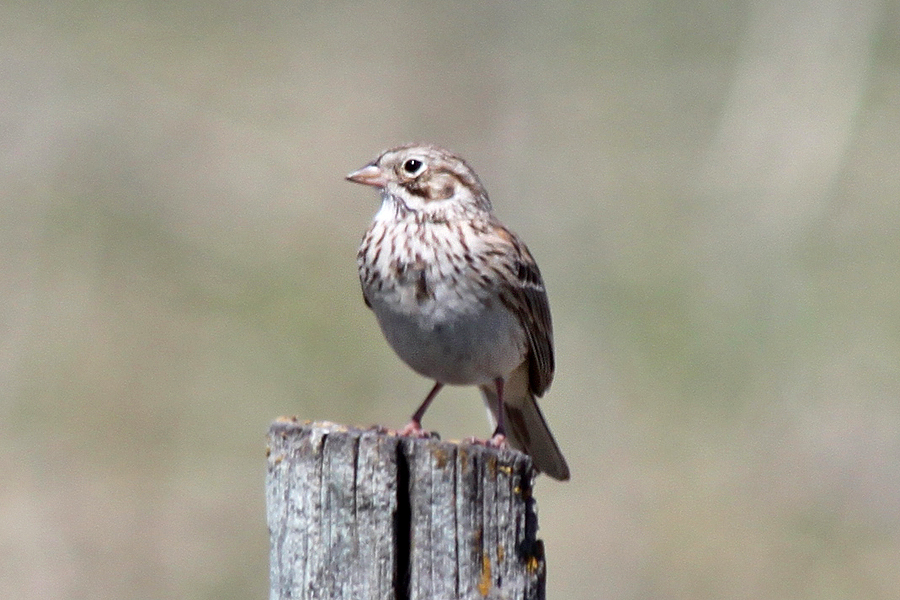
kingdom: Animalia
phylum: Chordata
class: Aves
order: Passeriformes
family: Passerellidae
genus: Pooecetes
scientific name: Pooecetes gramineus
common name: Vesper sparrow
